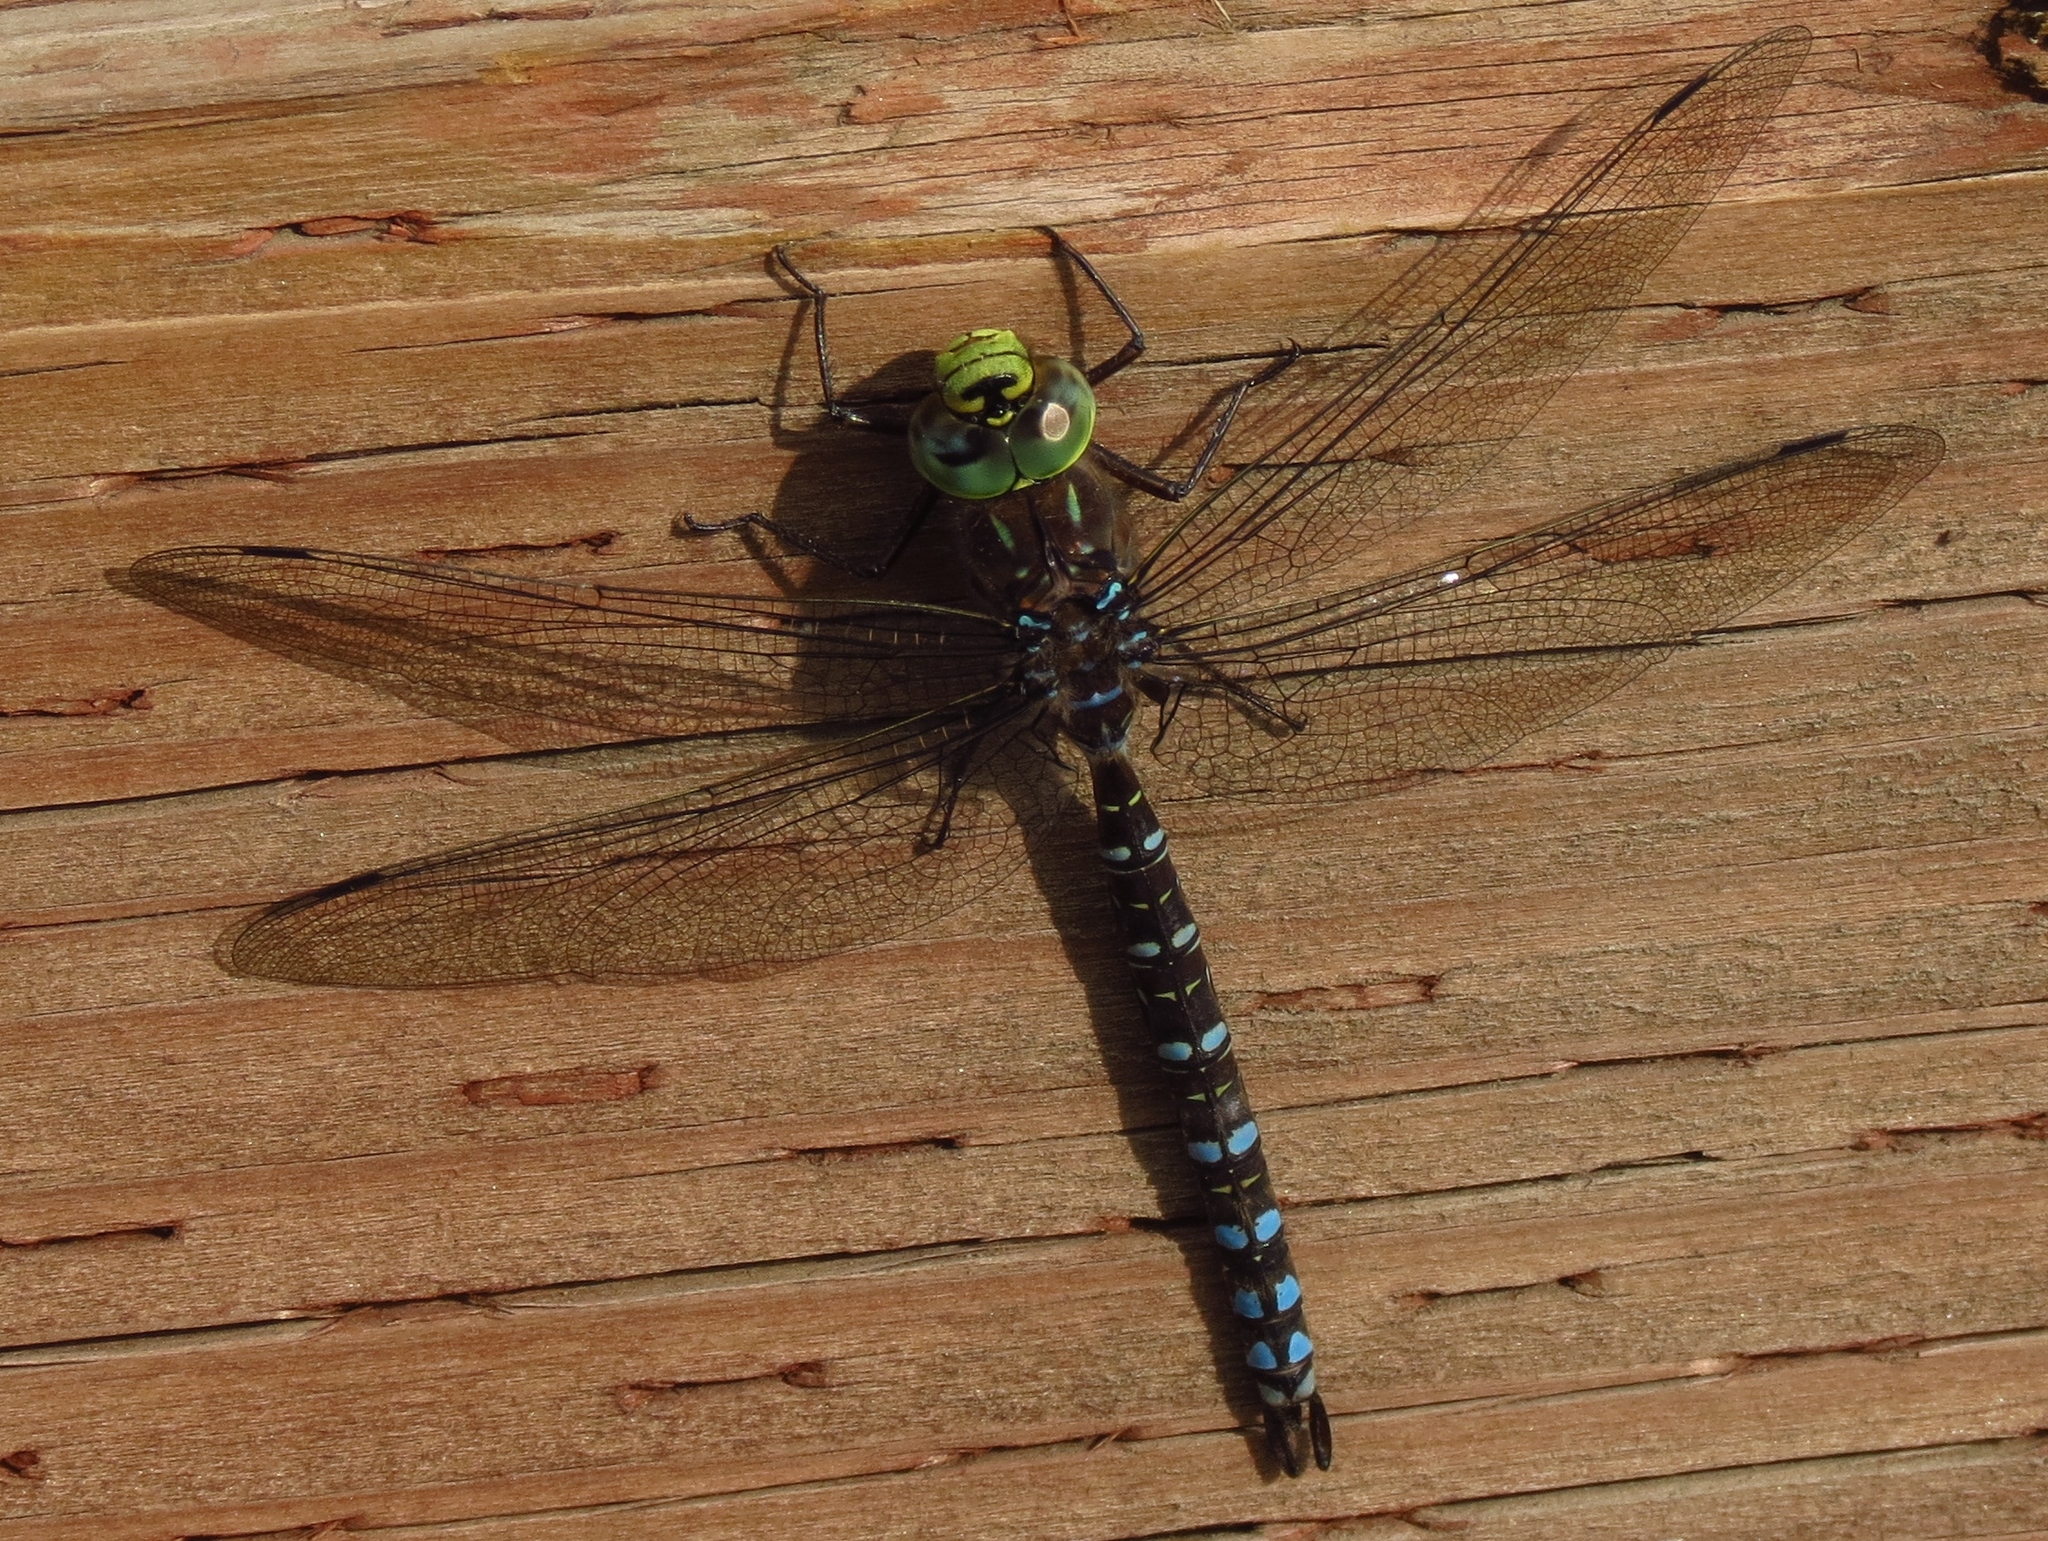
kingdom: Animalia
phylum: Arthropoda
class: Insecta
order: Odonata
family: Aeshnidae
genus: Aeshna
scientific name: Aeshna eremita
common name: Lake darner
